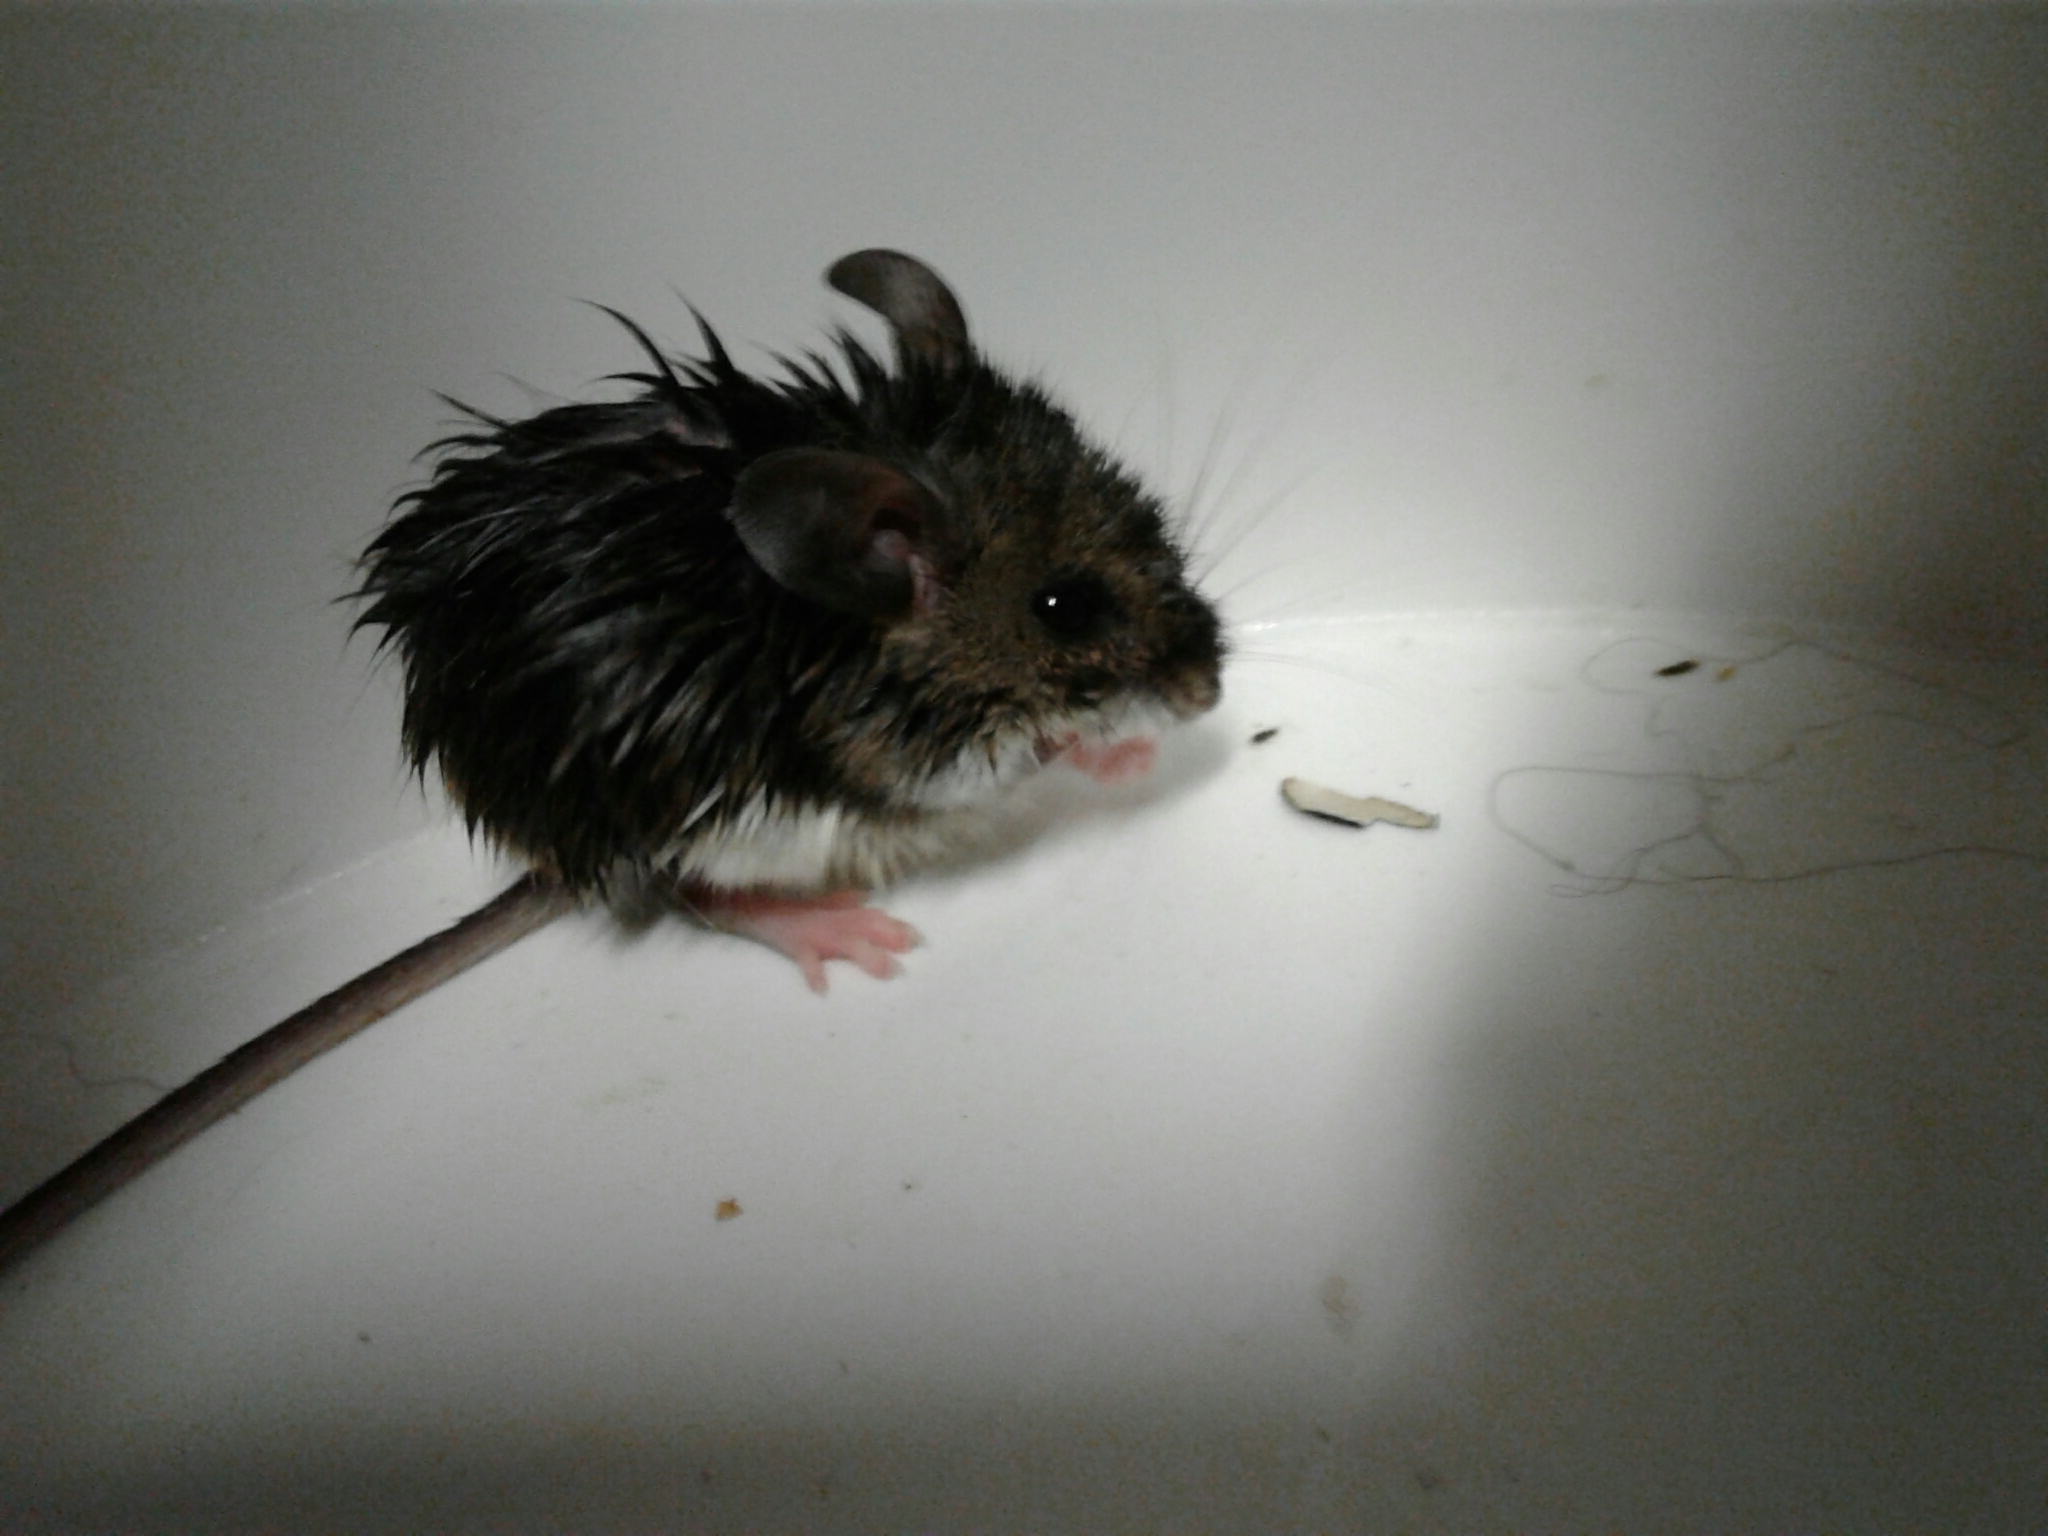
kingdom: Animalia
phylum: Chordata
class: Mammalia
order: Rodentia
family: Cricetidae
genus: Peromyscus
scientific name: Peromyscus maniculatus
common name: Deer mouse
